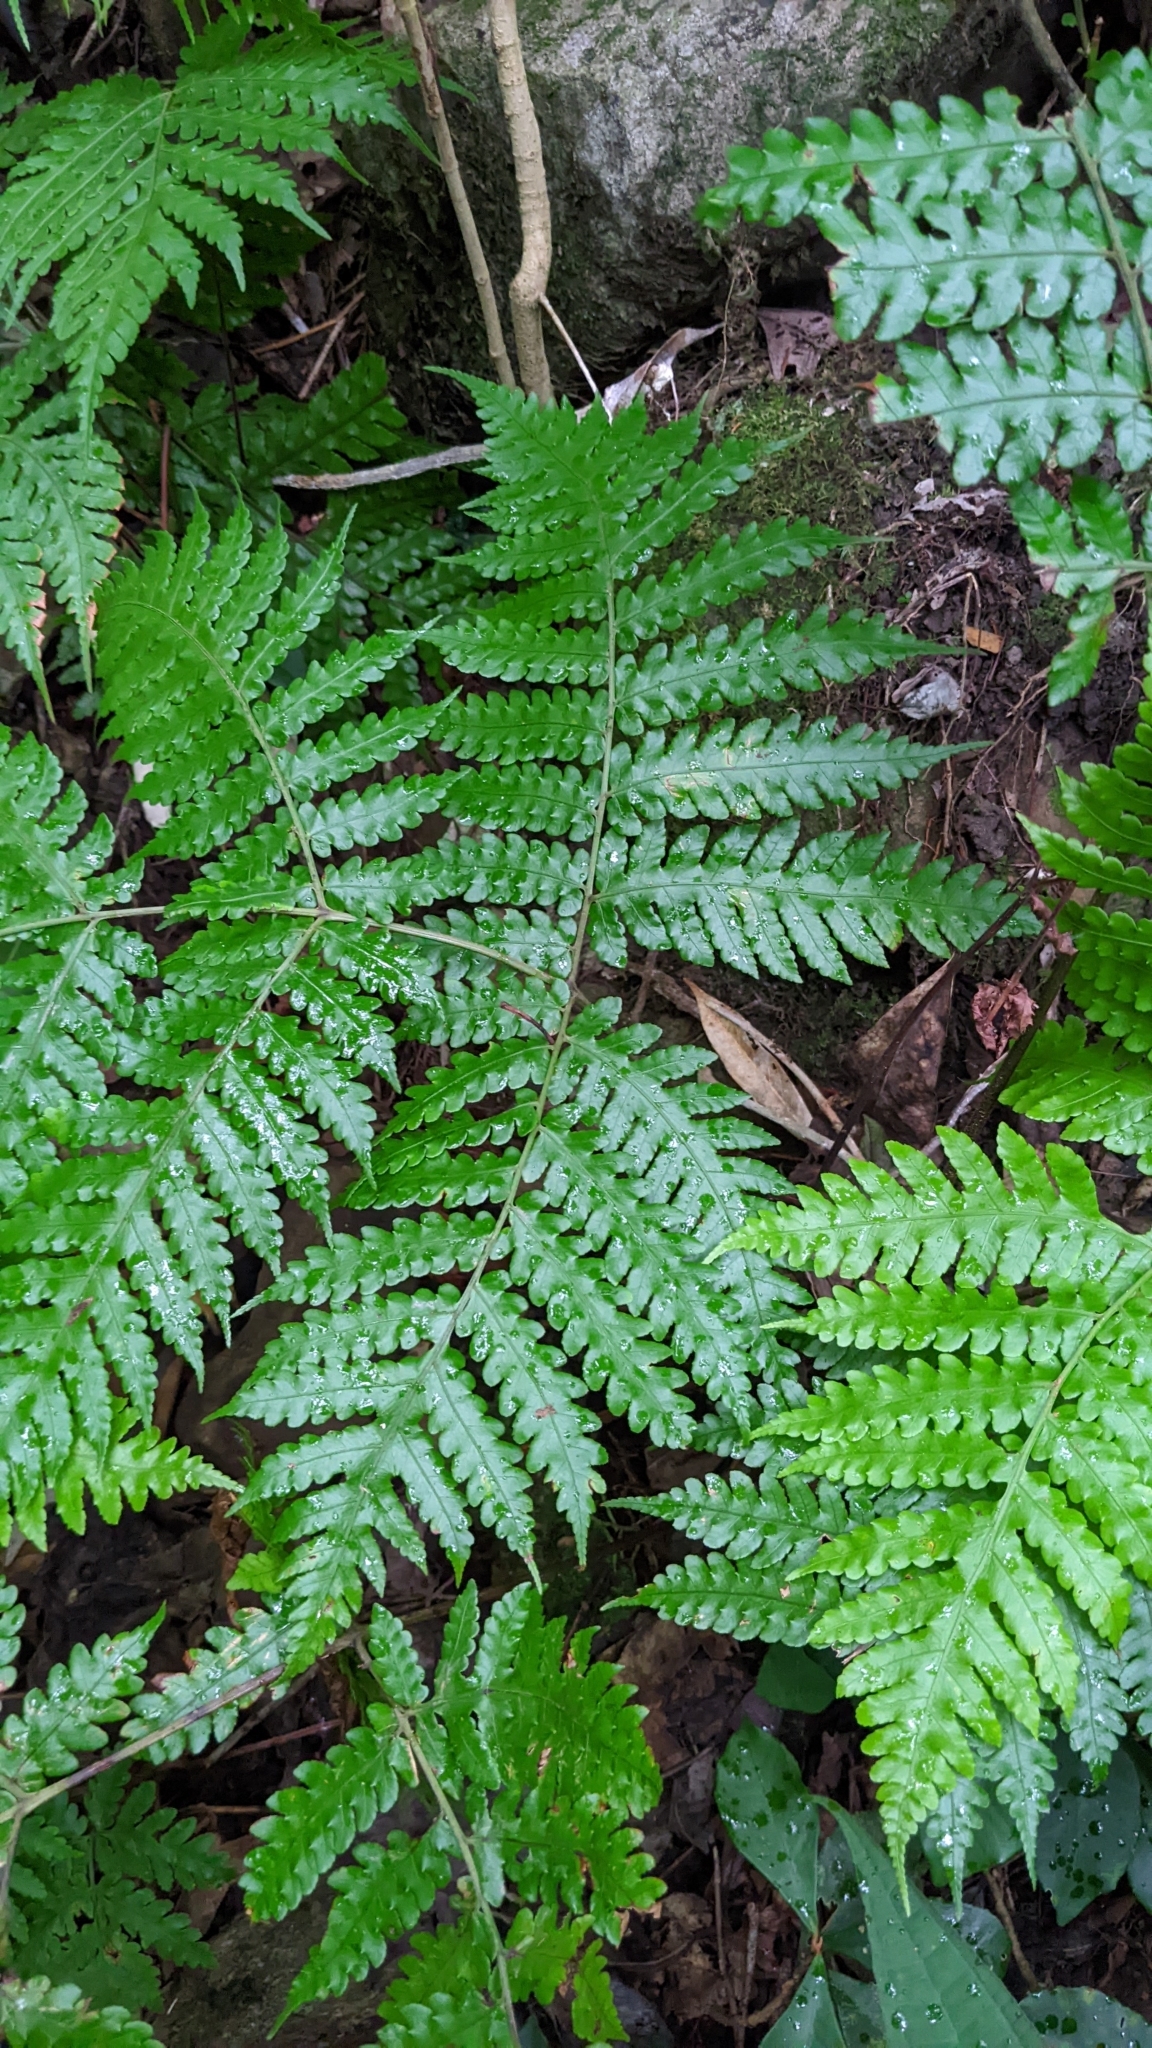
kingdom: Plantae
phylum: Tracheophyta
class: Polypodiopsida
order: Polypodiales
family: Dryopteridaceae
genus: Pleocnemia
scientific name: Pleocnemia submembranacea
